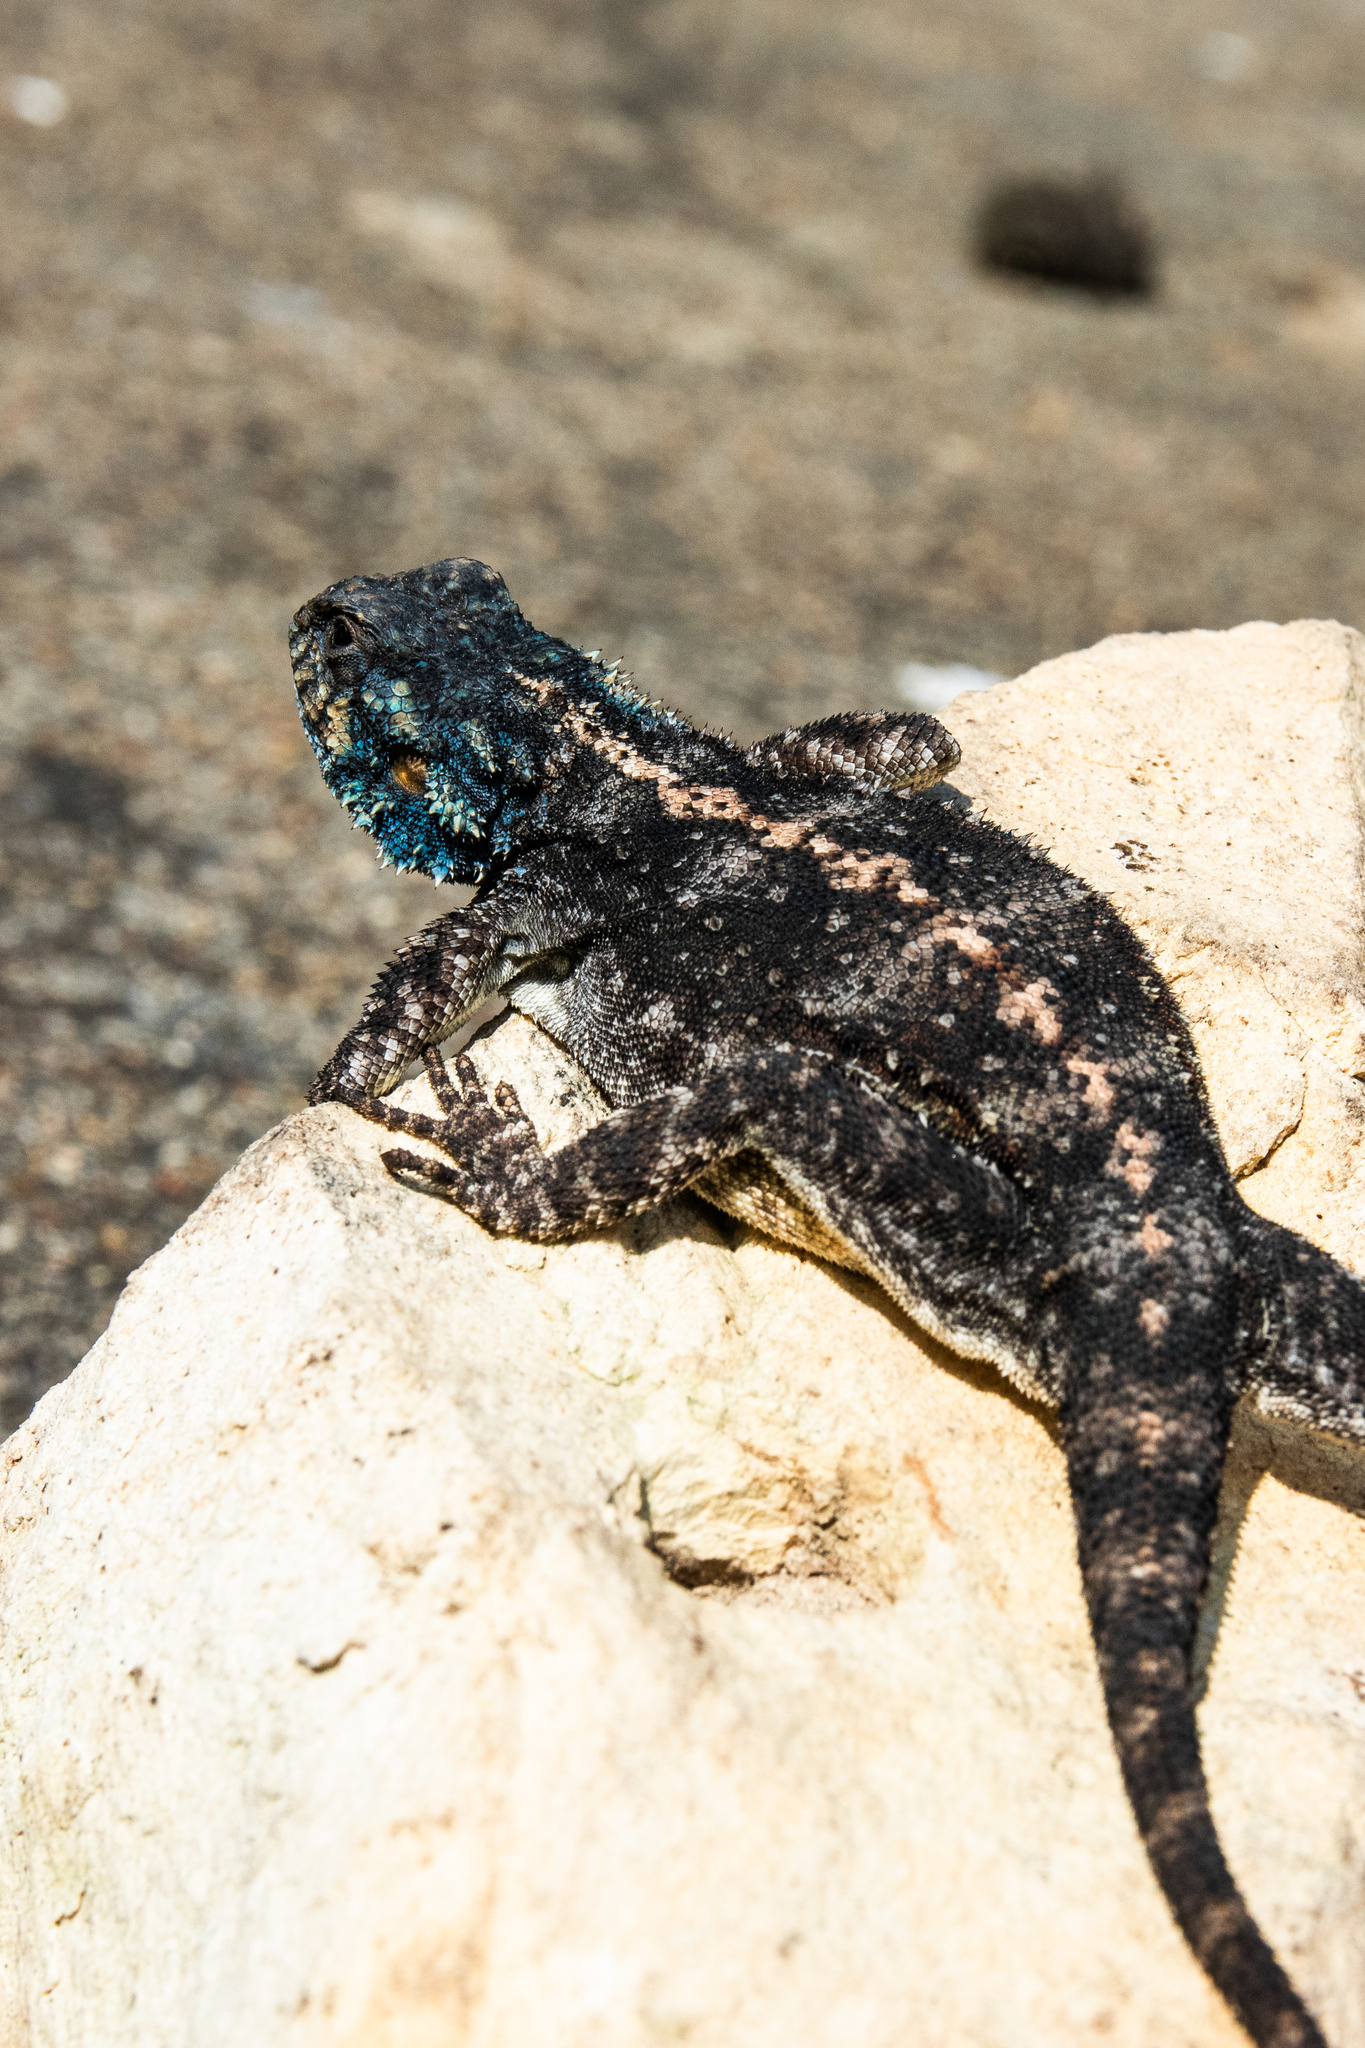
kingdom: Animalia
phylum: Chordata
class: Squamata
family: Agamidae
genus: Agama
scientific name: Agama atra
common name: Southern african rock agama
